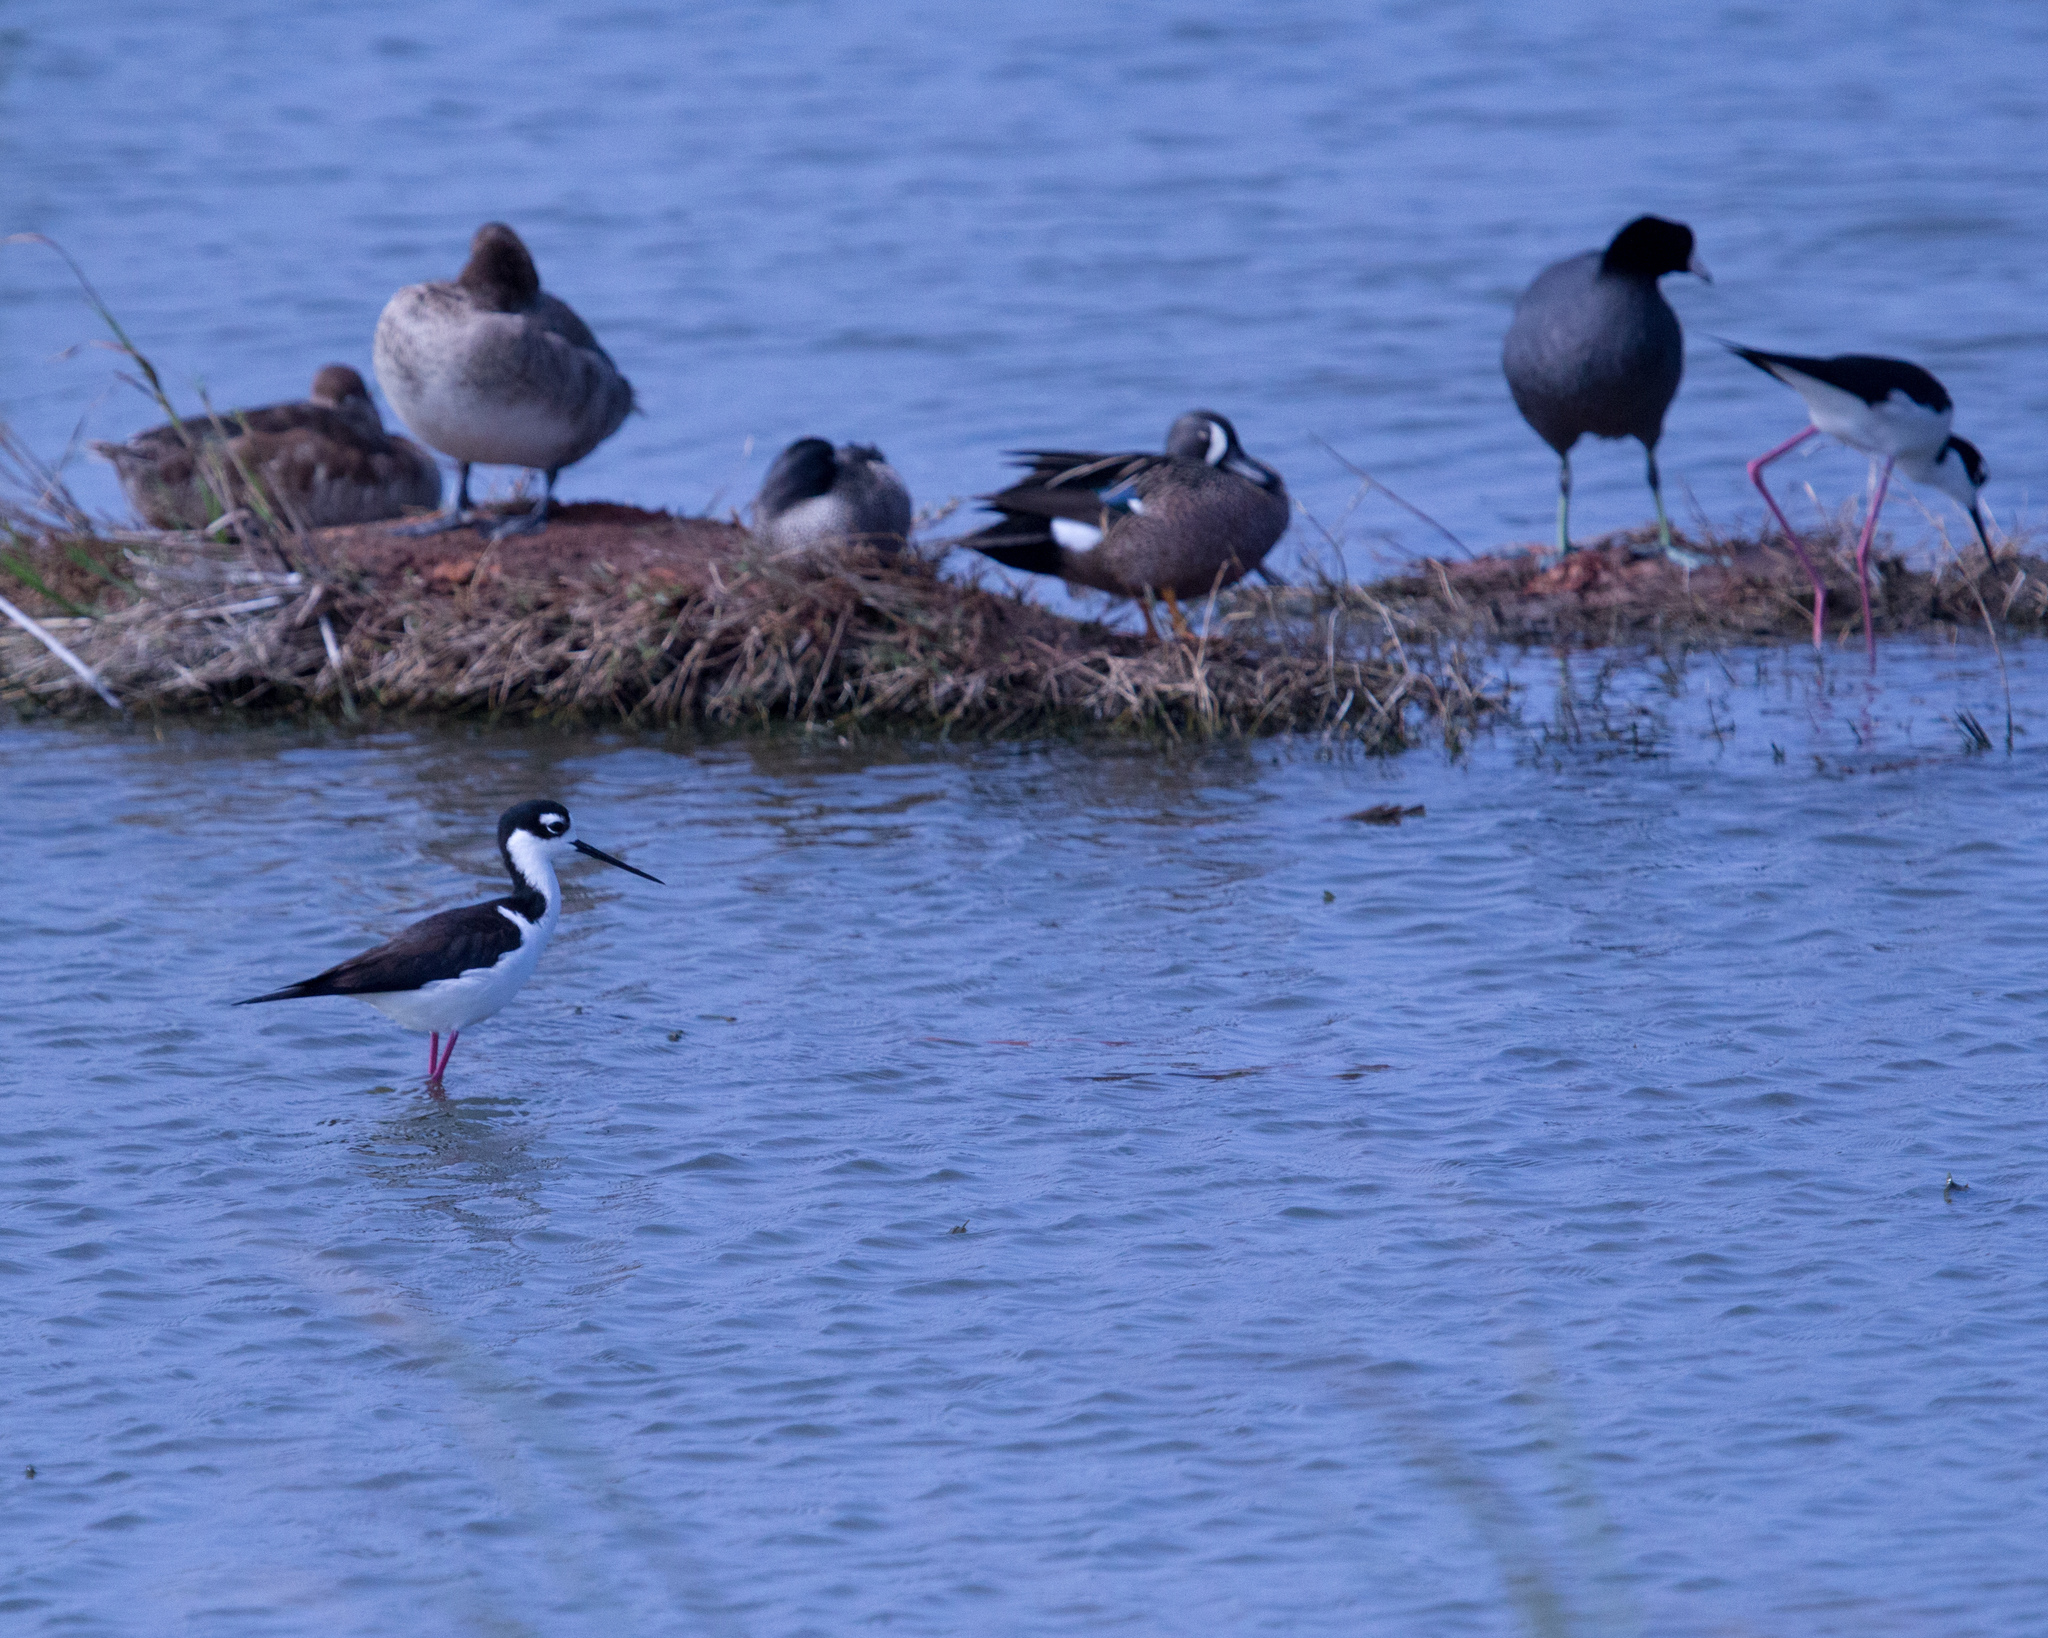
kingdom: Animalia
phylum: Chordata
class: Aves
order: Charadriiformes
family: Recurvirostridae
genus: Himantopus
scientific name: Himantopus mexicanus
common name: Black-necked stilt
